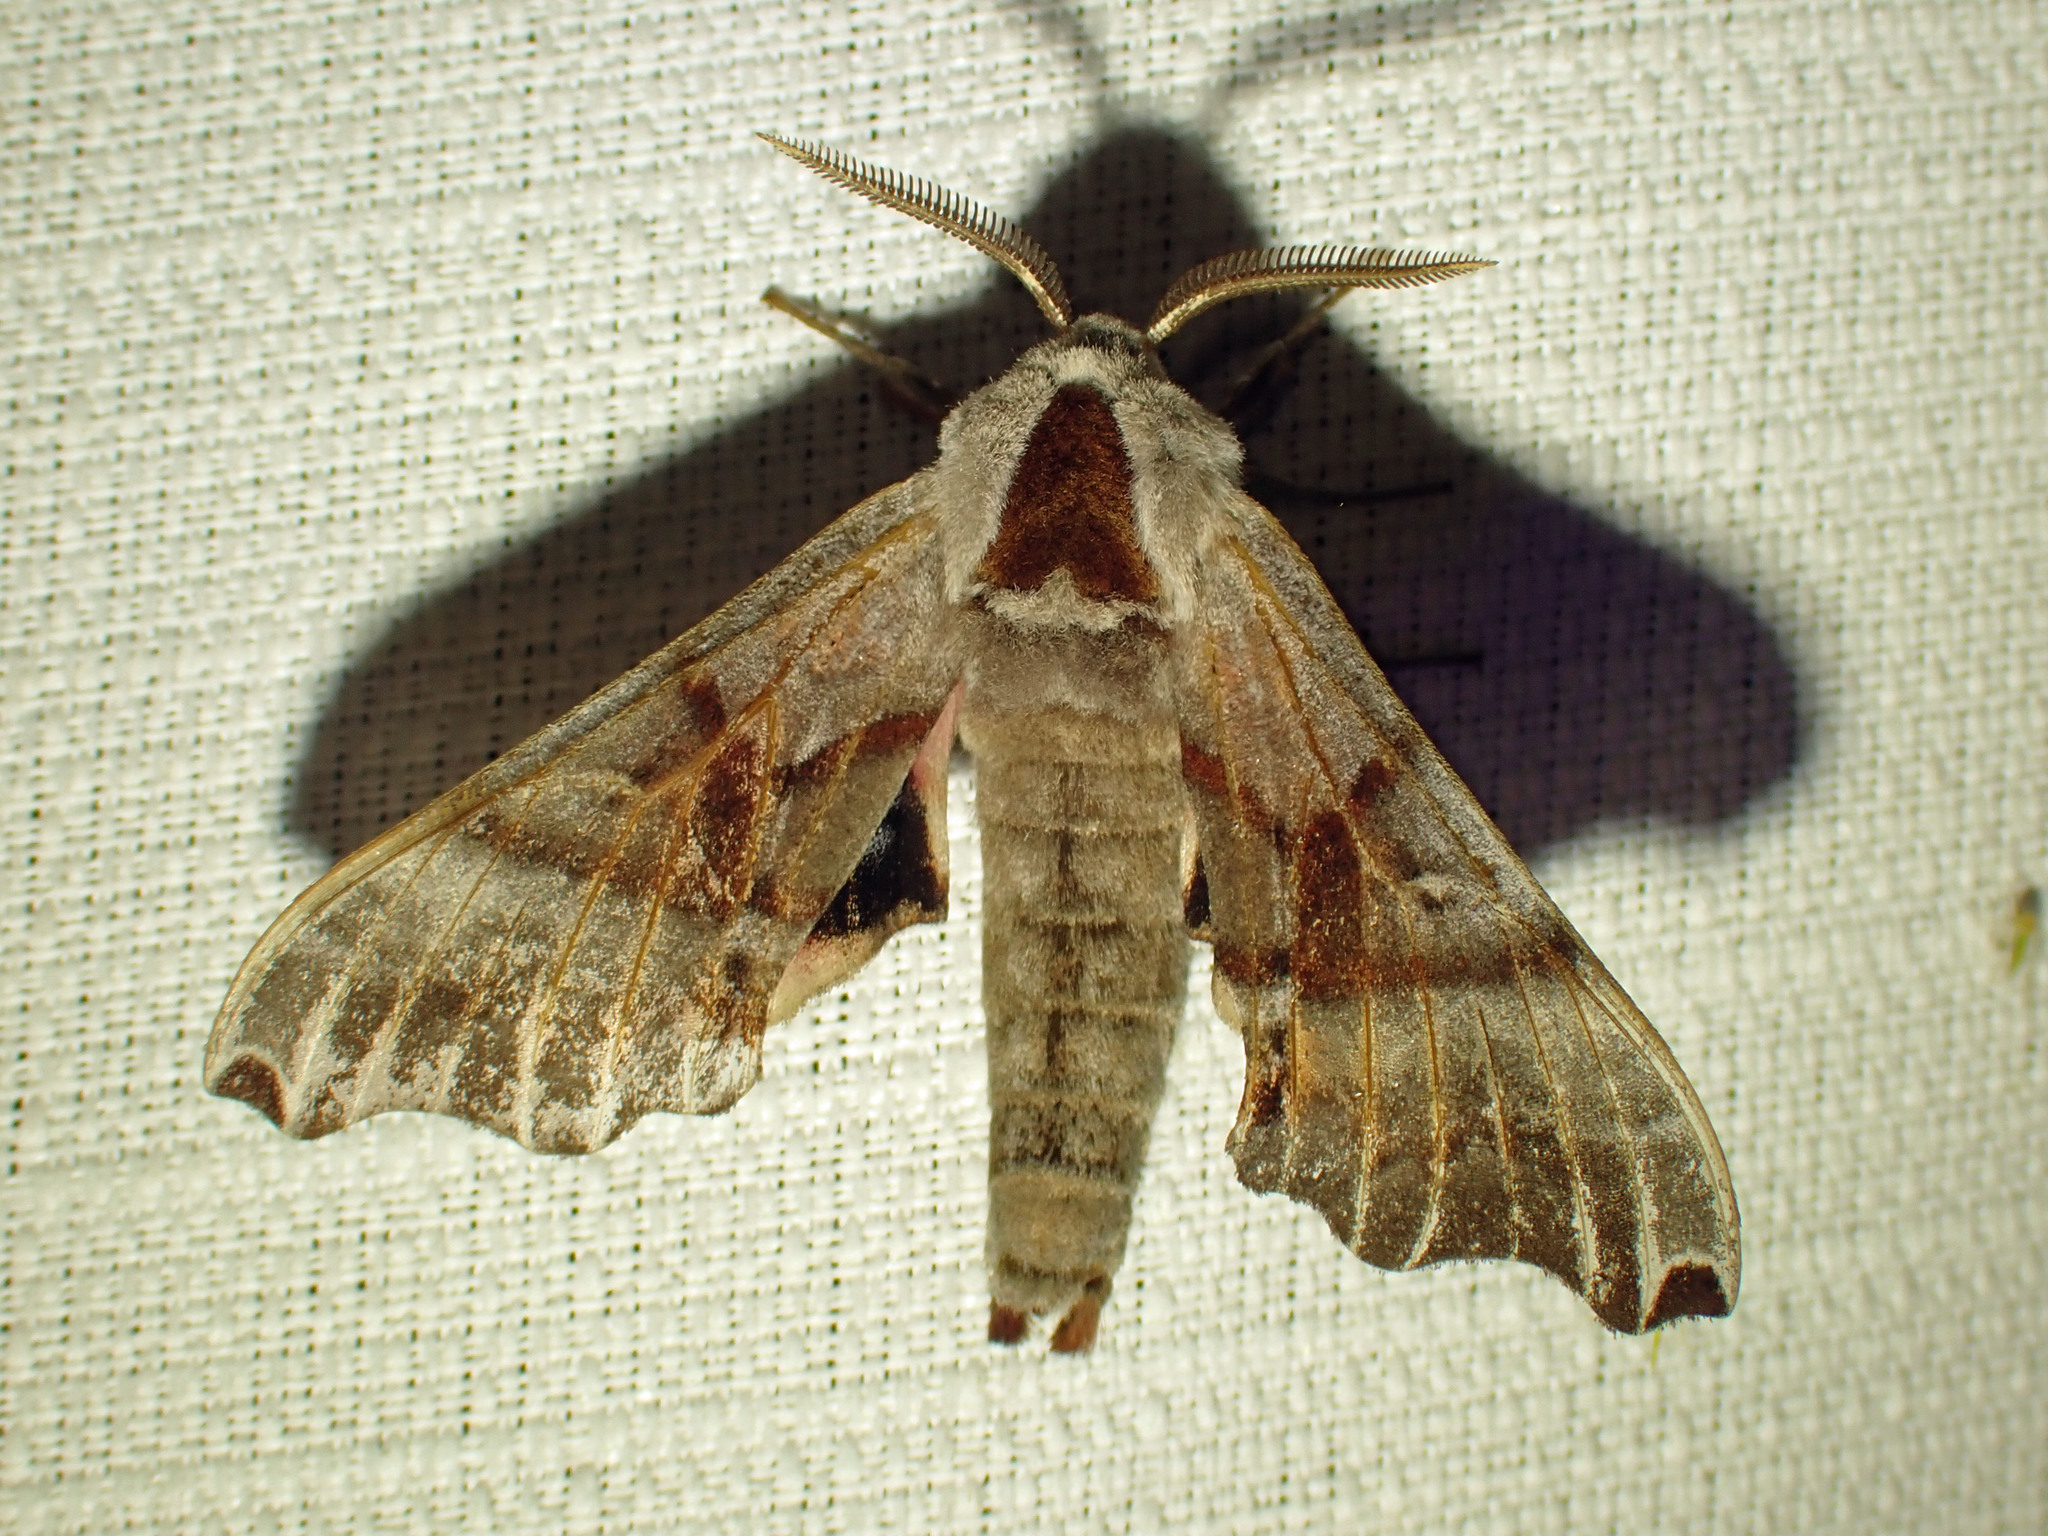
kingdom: Animalia
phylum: Arthropoda
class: Insecta
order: Lepidoptera
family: Sphingidae
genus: Smerinthus
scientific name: Smerinthus jamaicensis
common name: Twin spotted sphinx
